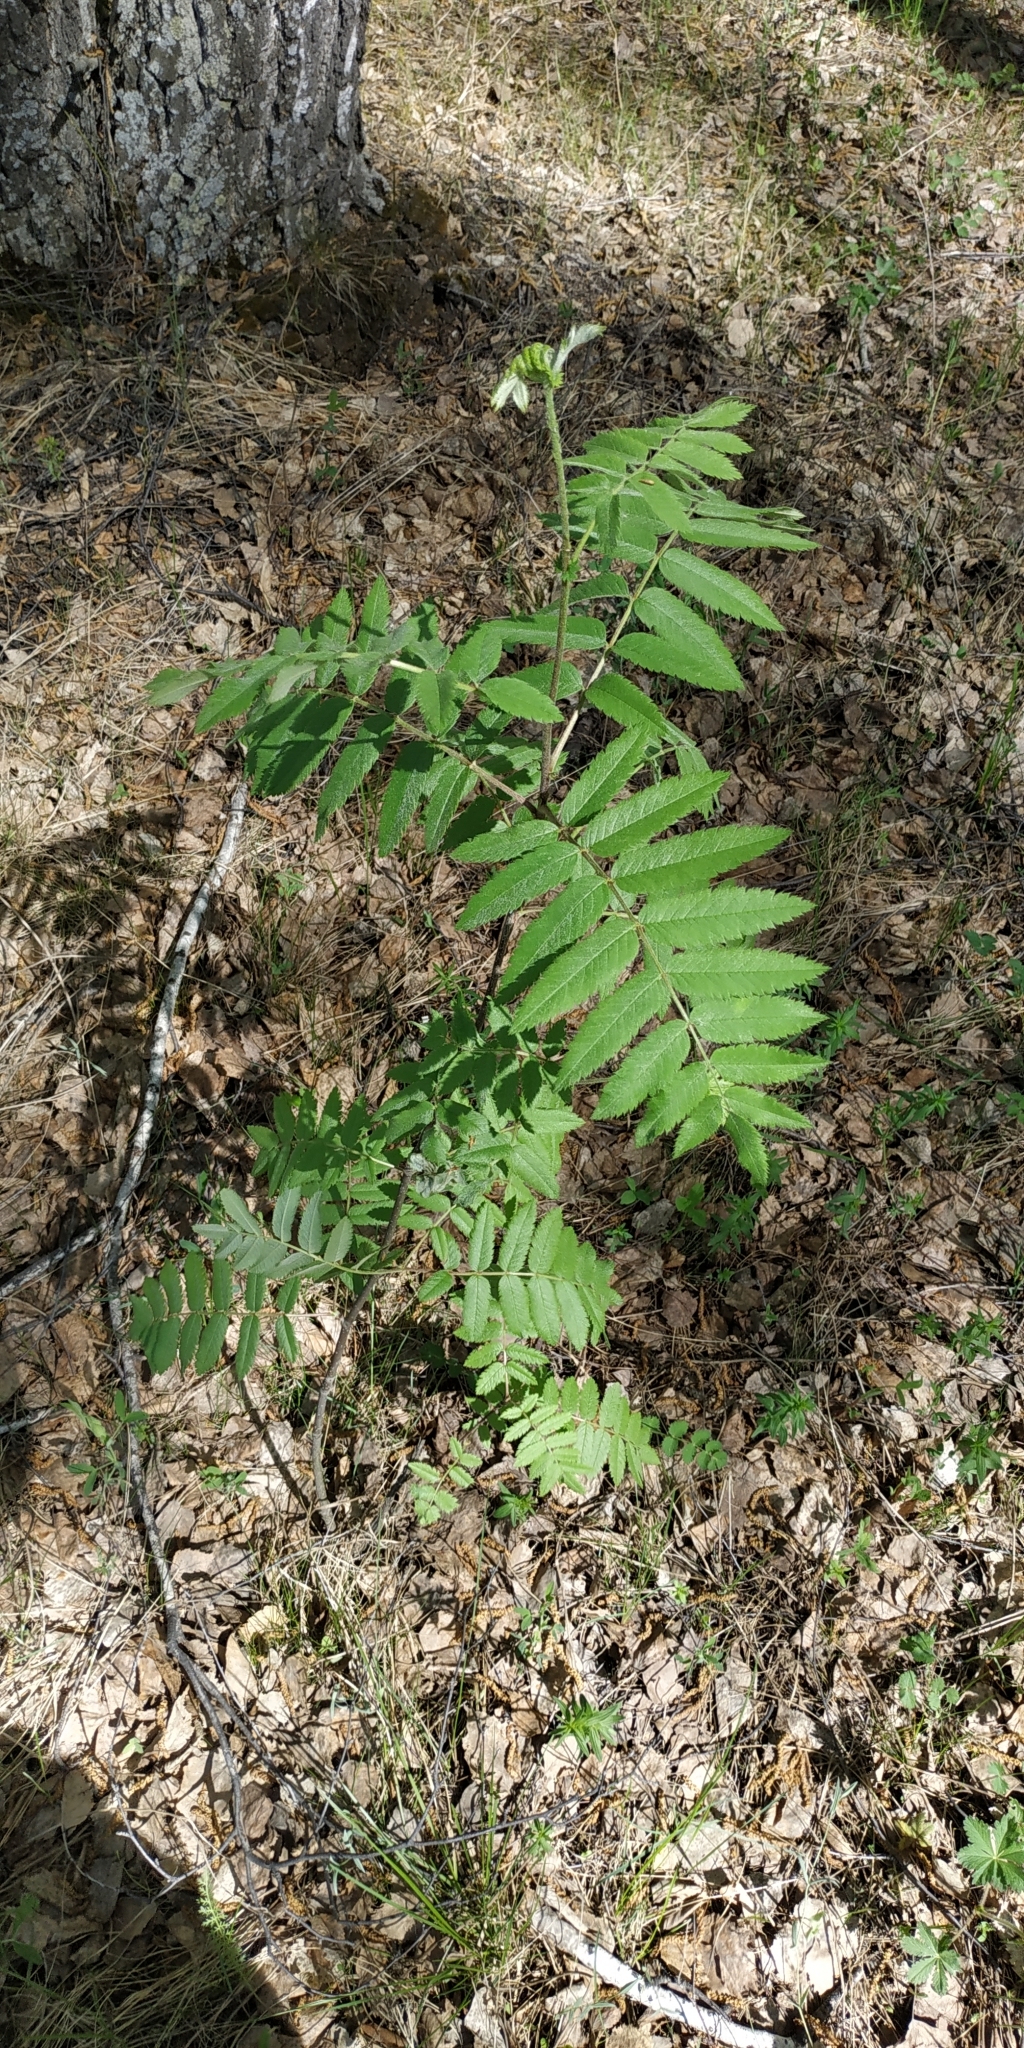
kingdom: Plantae
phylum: Tracheophyta
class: Magnoliopsida
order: Rosales
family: Rosaceae
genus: Sorbus
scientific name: Sorbus aucuparia
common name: Rowan
